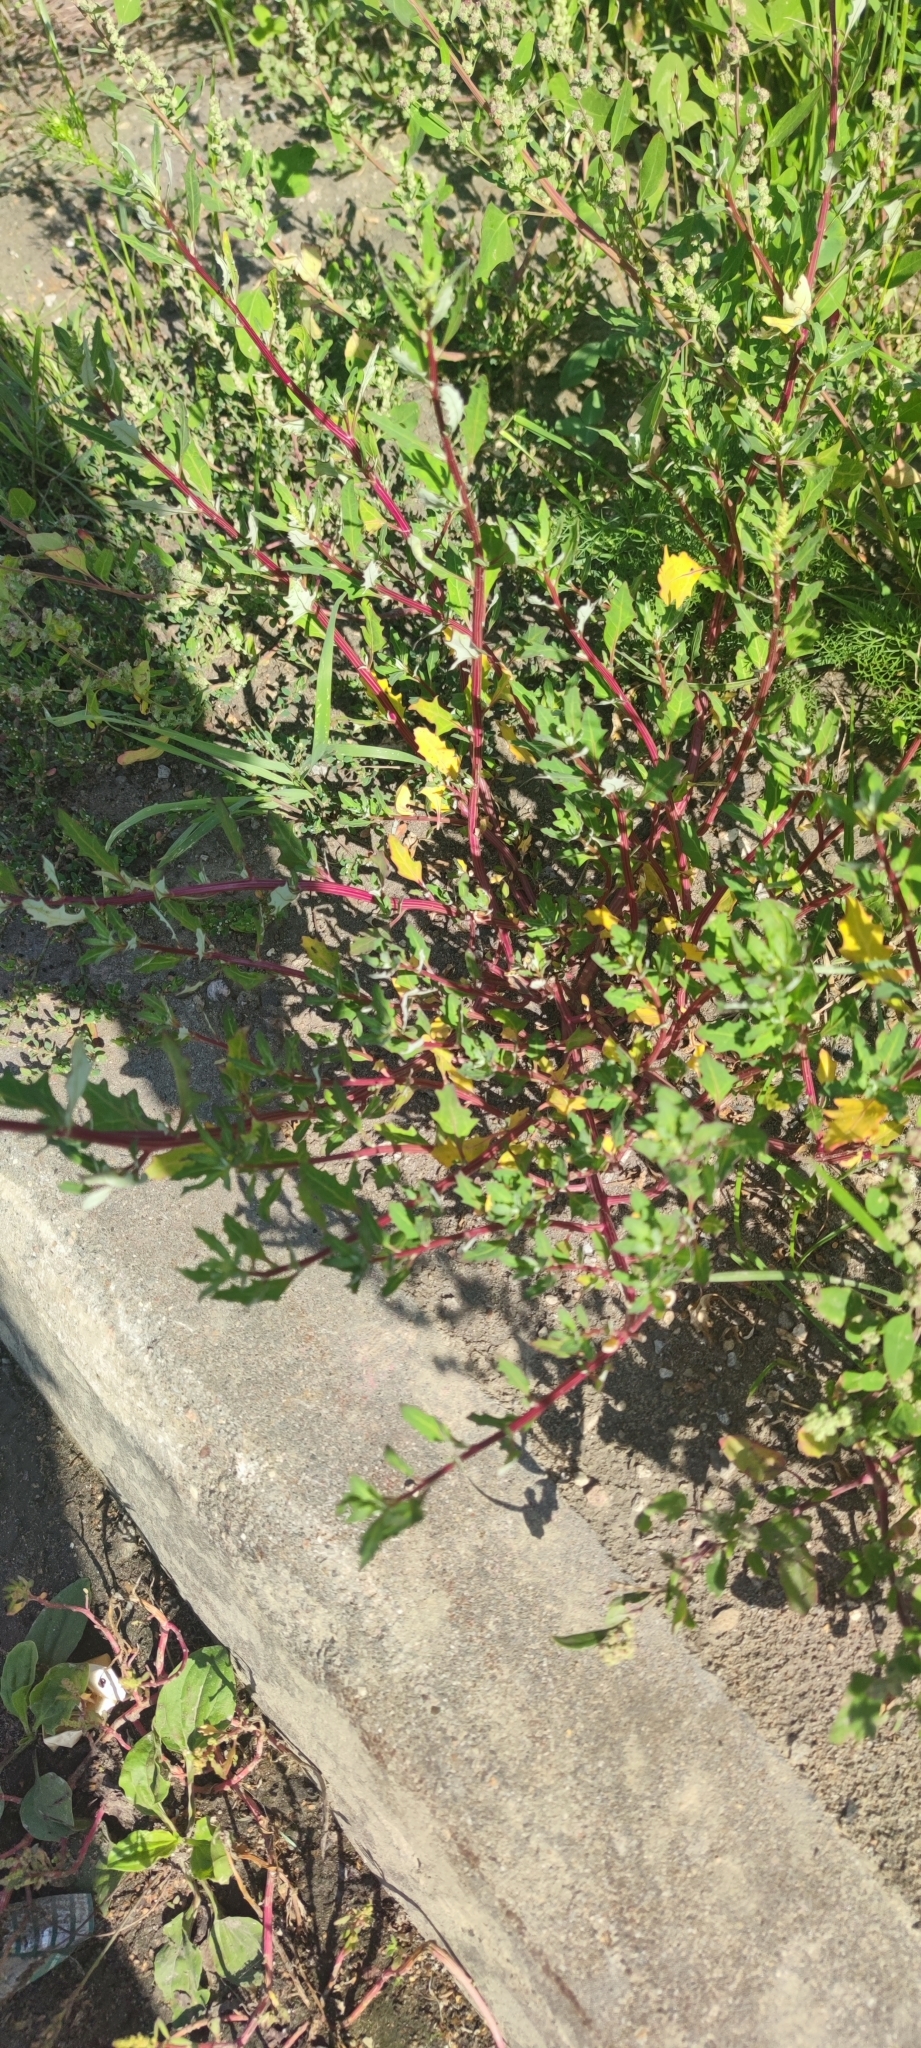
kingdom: Plantae
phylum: Tracheophyta
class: Magnoliopsida
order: Caryophyllales
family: Amaranthaceae
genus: Oxybasis
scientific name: Oxybasis glauca
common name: Glaucous goosefoot
